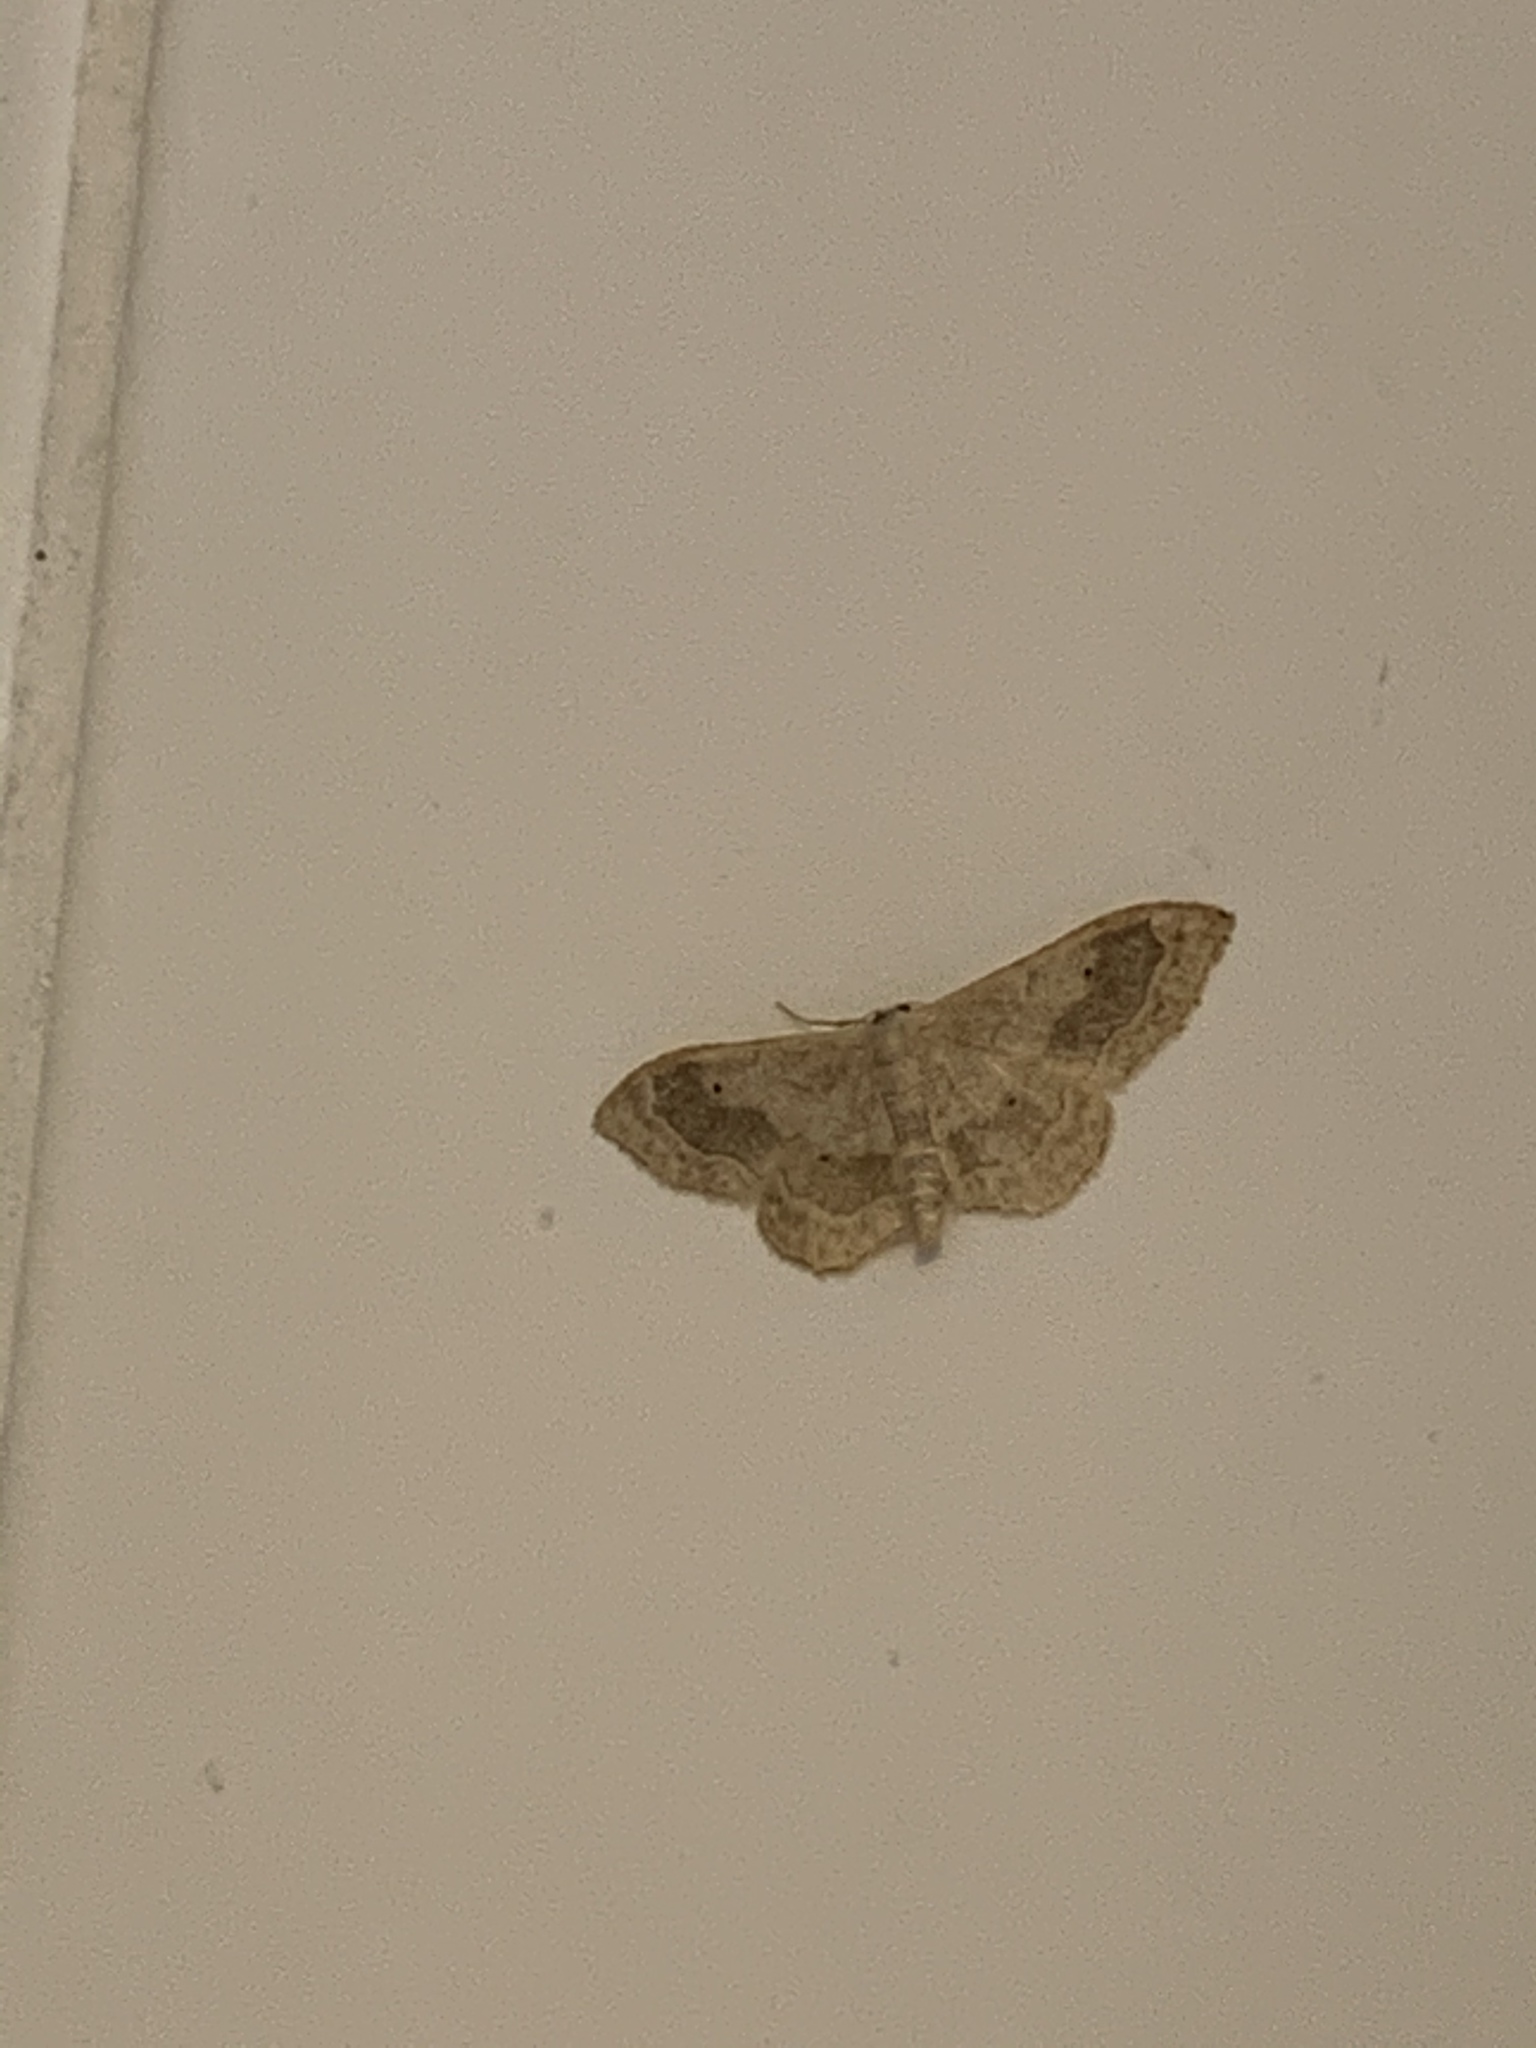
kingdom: Animalia
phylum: Arthropoda
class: Insecta
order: Lepidoptera
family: Geometridae
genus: Idaea
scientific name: Idaea aversata
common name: Riband wave
